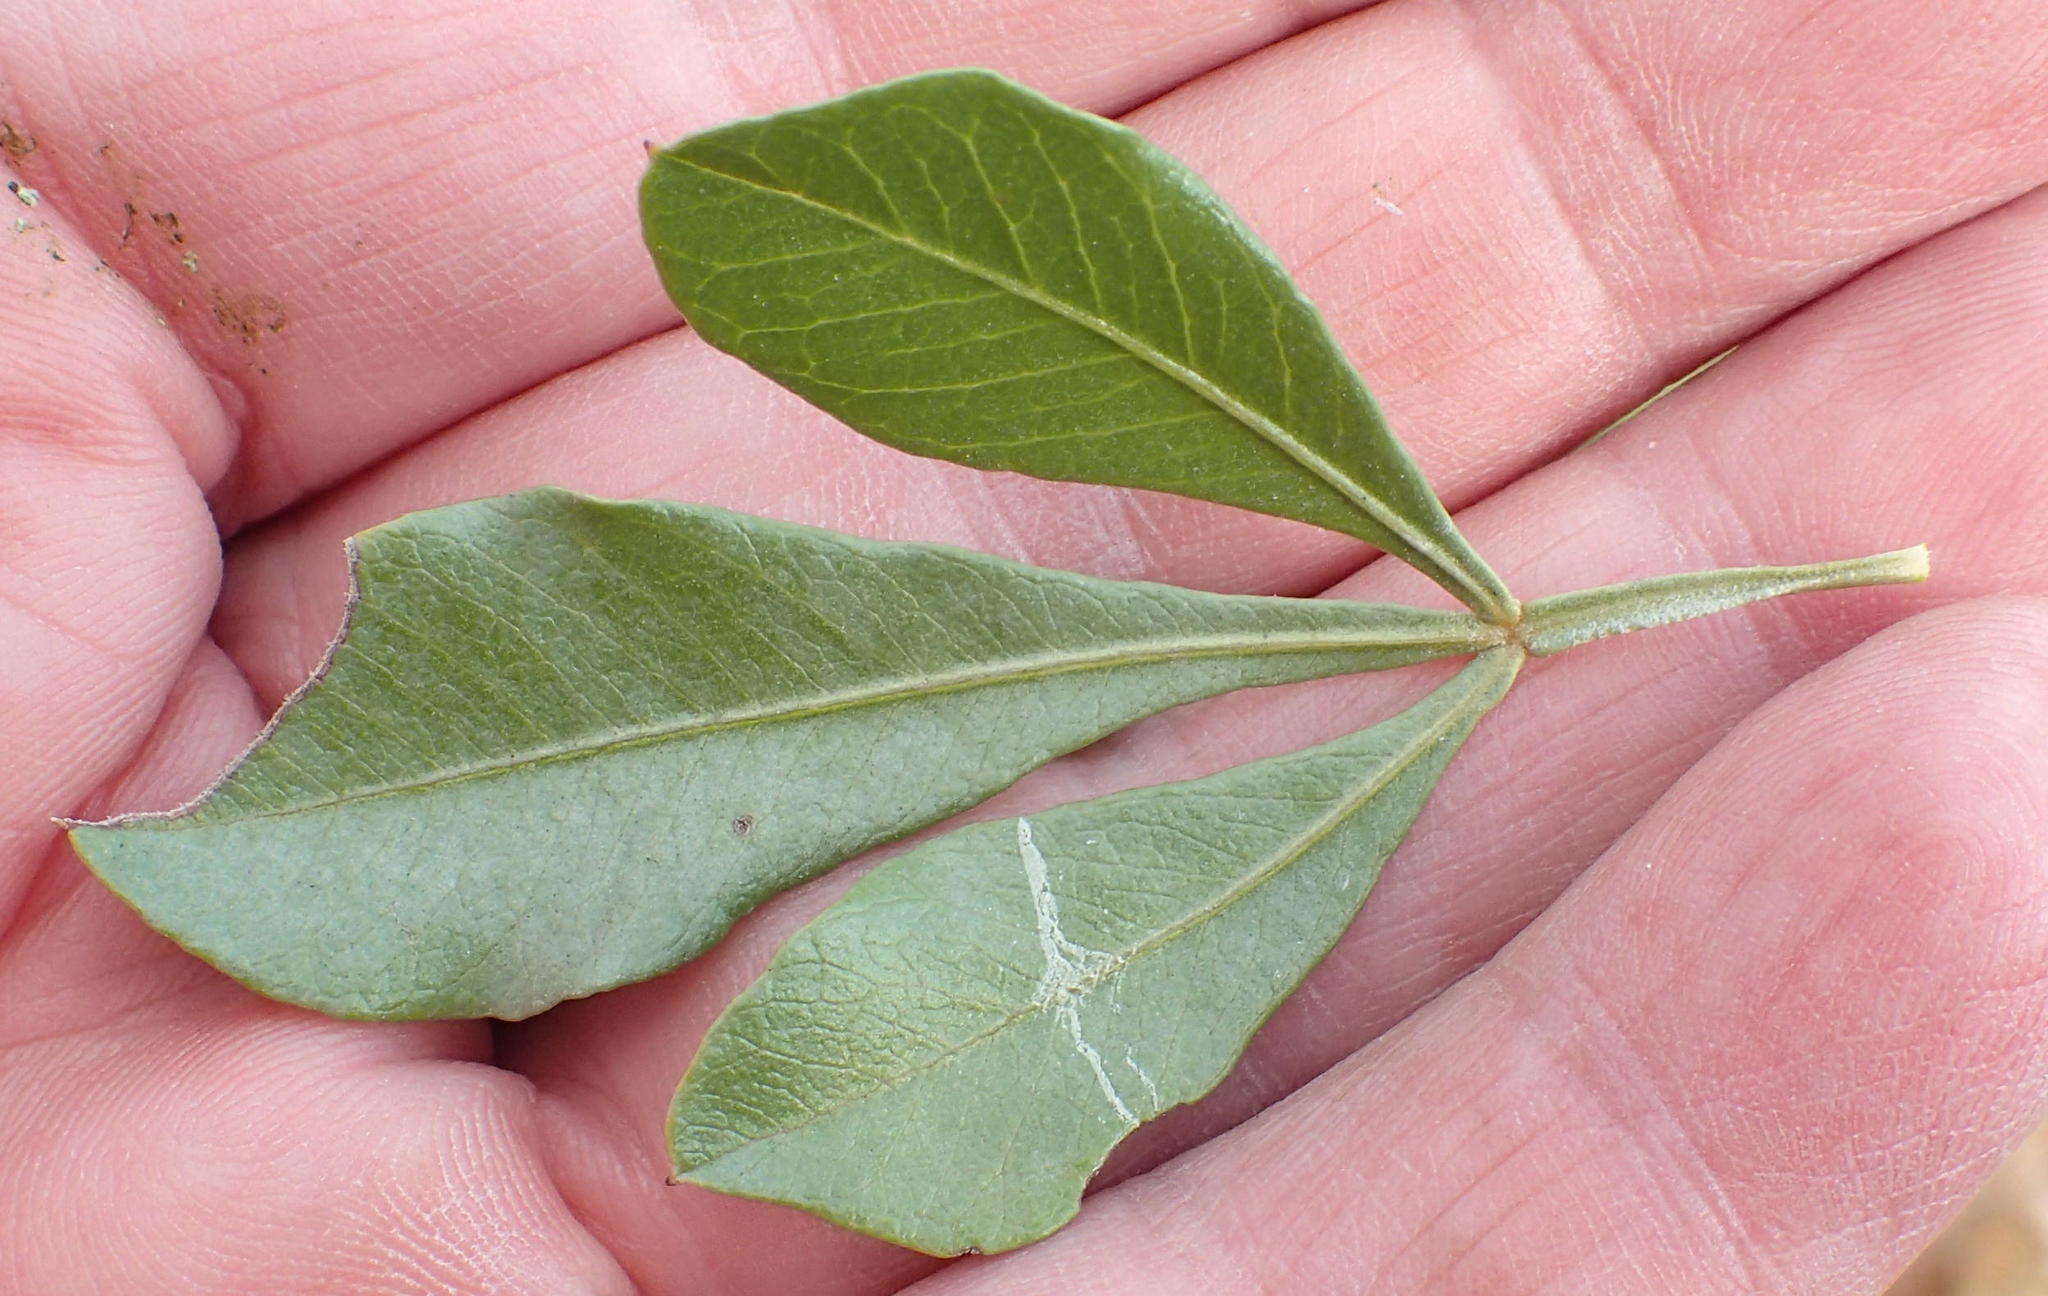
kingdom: Plantae
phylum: Tracheophyta
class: Magnoliopsida
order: Sapindales
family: Anacardiaceae
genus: Searsia
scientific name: Searsia pallens
